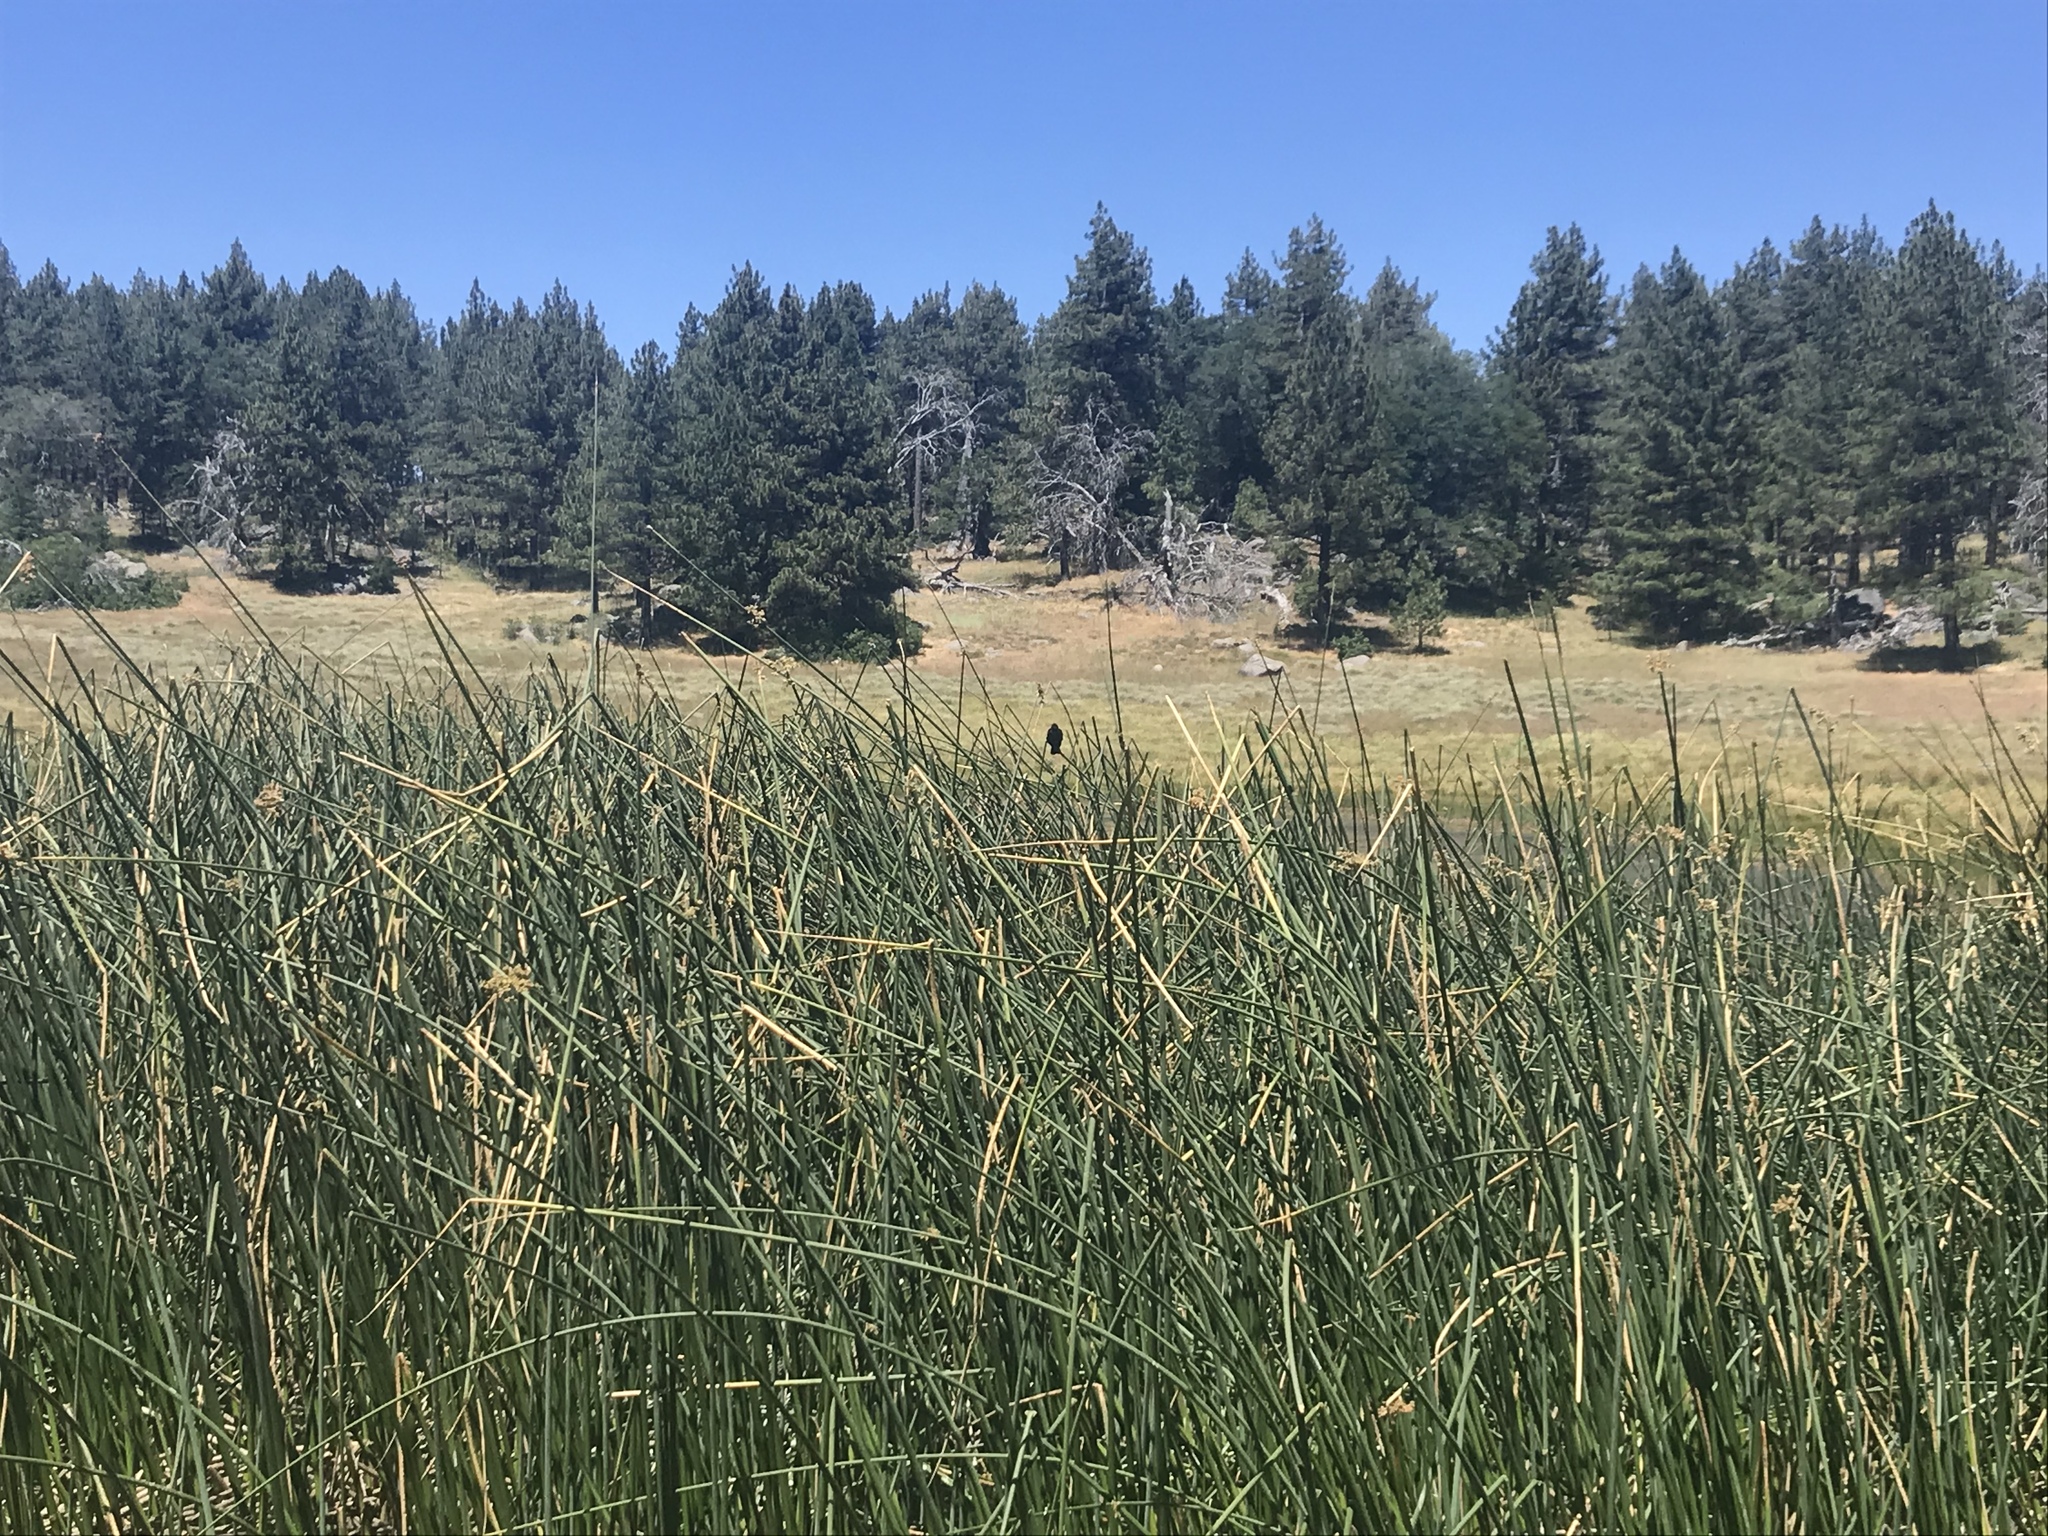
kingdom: Animalia
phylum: Chordata
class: Aves
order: Passeriformes
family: Icteridae
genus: Agelaius
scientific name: Agelaius phoeniceus
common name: Red-winged blackbird
